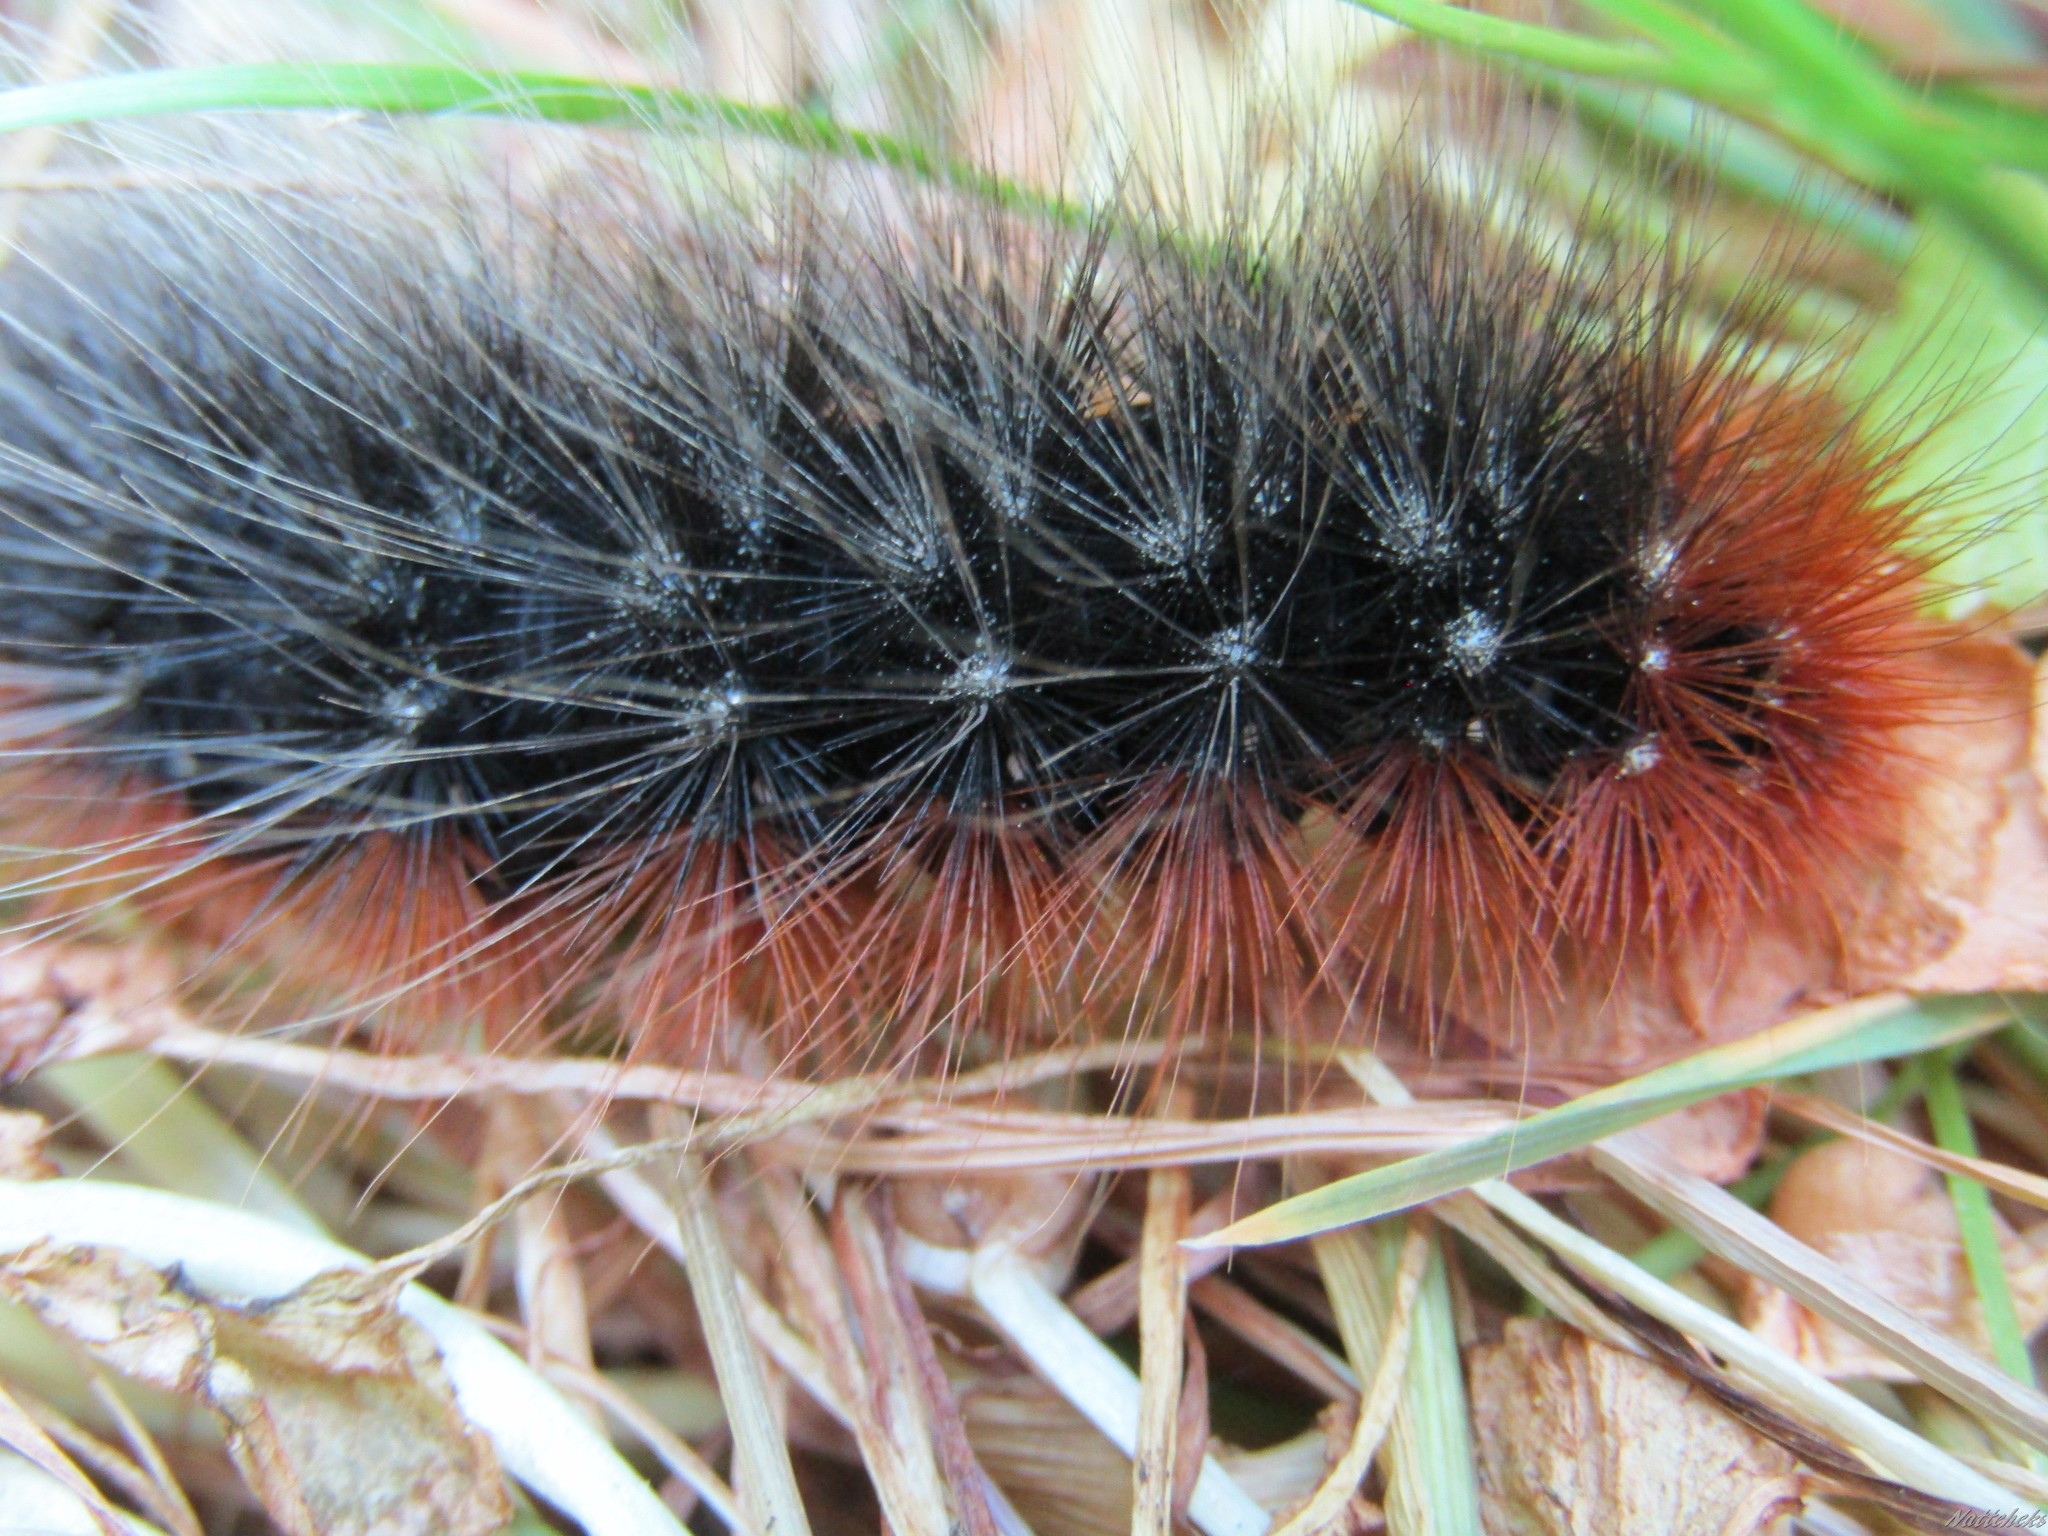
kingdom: Animalia
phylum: Arthropoda
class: Insecta
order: Lepidoptera
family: Erebidae
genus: Arctia
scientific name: Arctia caja
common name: Garden tiger
